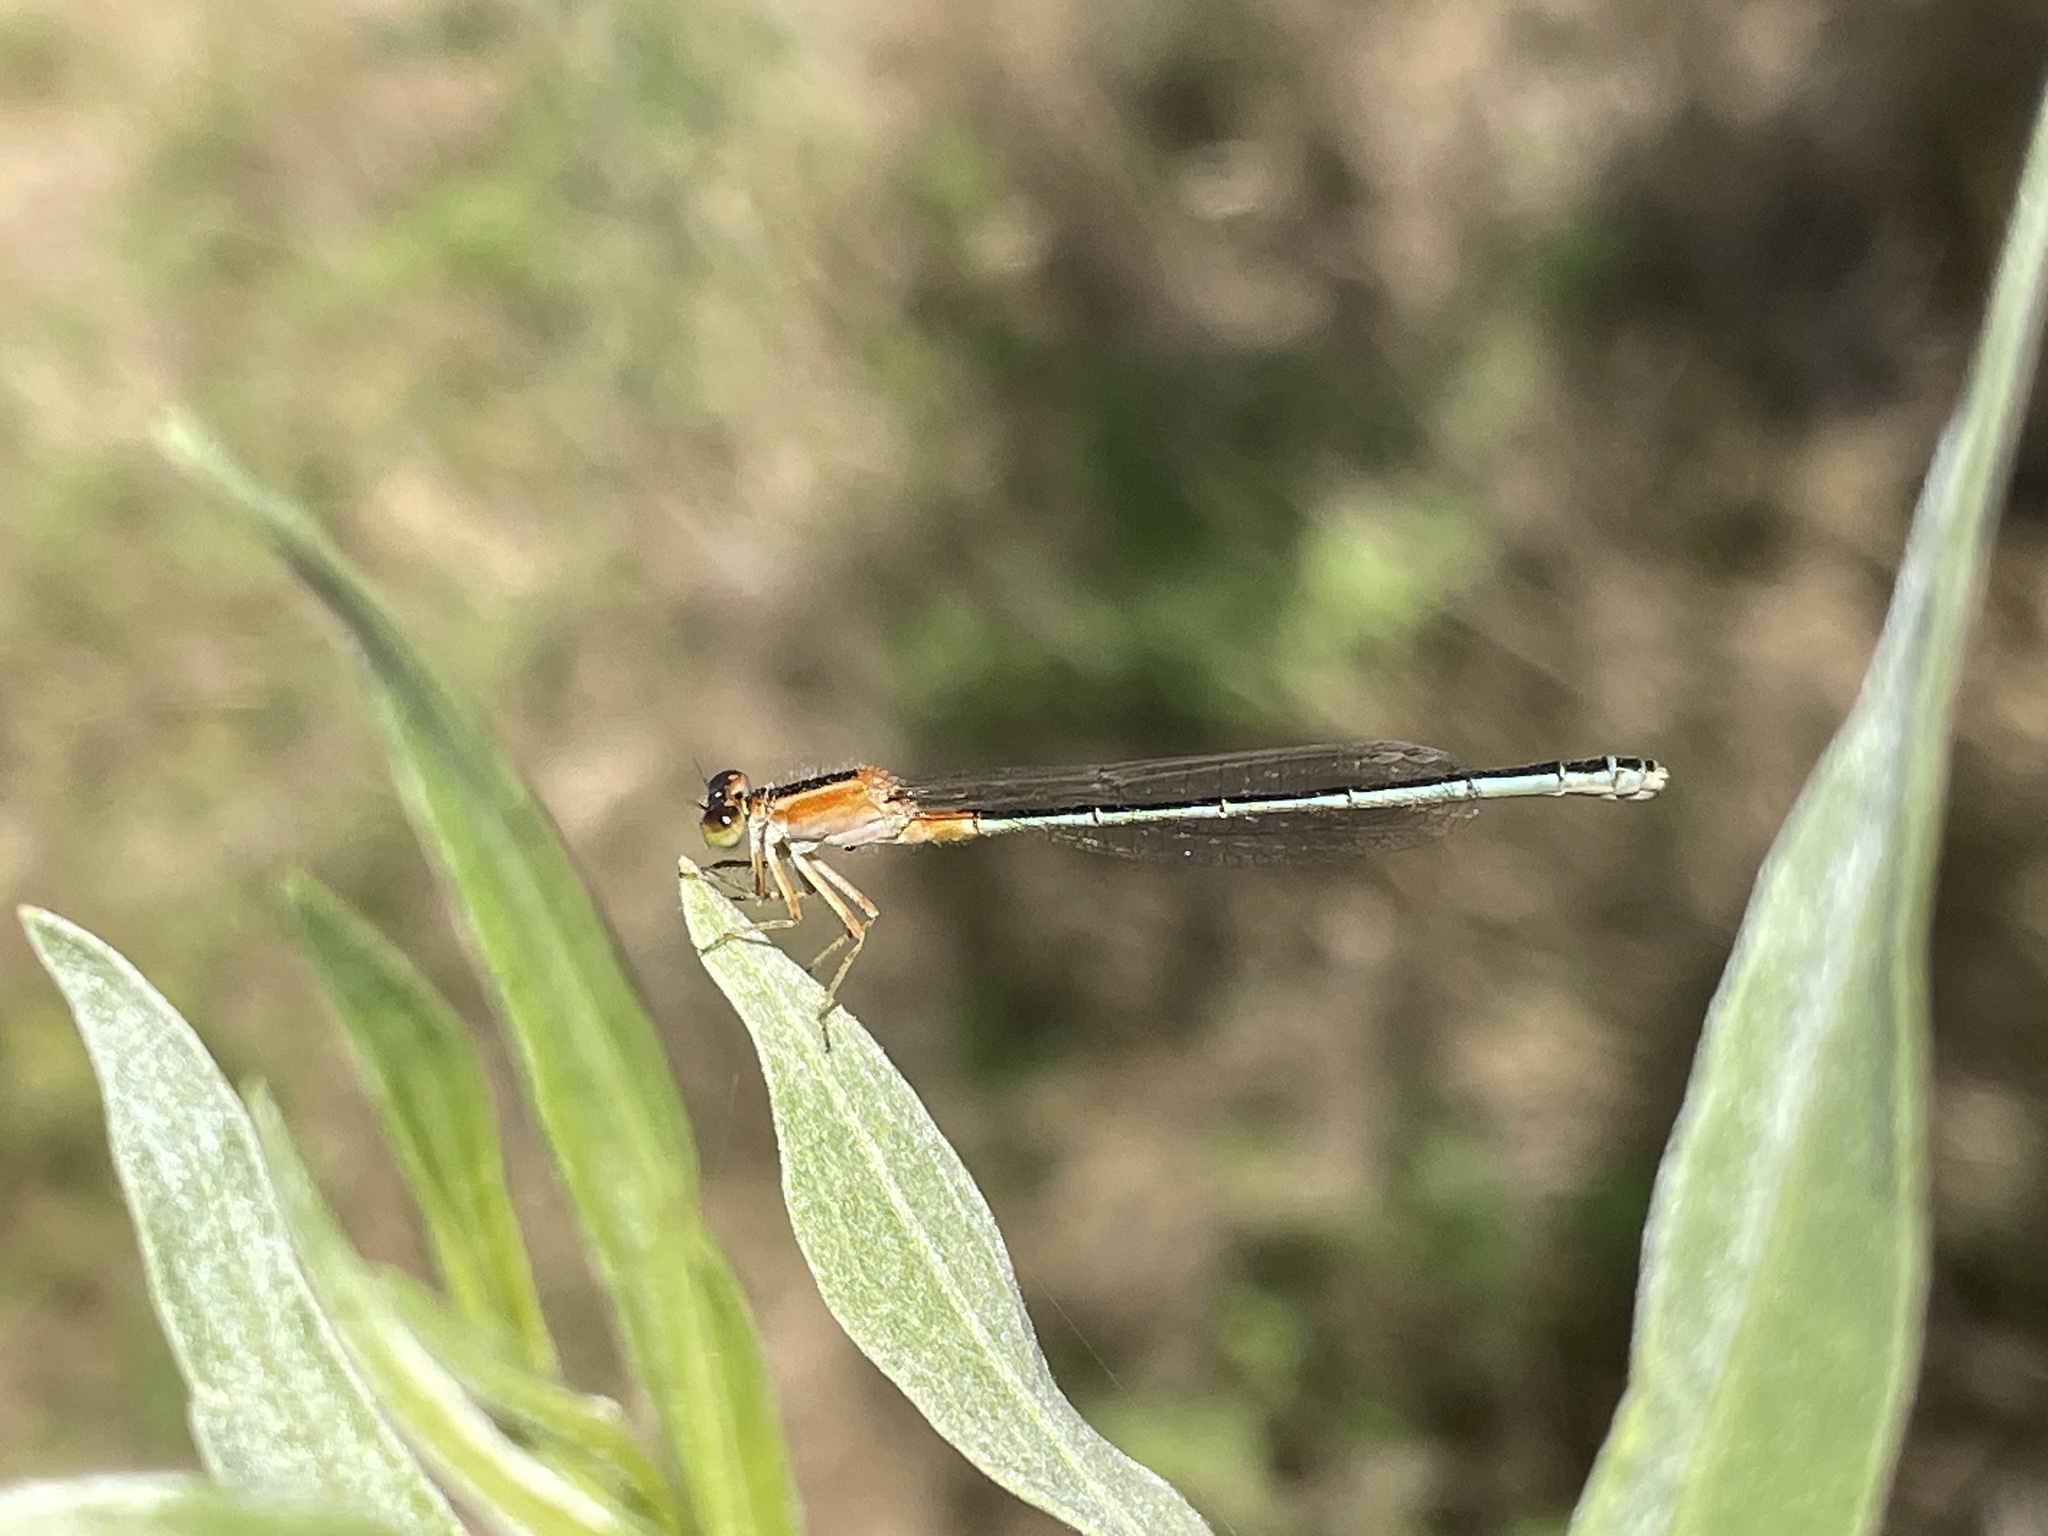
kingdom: Animalia
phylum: Arthropoda
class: Insecta
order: Odonata
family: Coenagrionidae
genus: Ischnura
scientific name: Ischnura senegalensis
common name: Tropical bluetail
